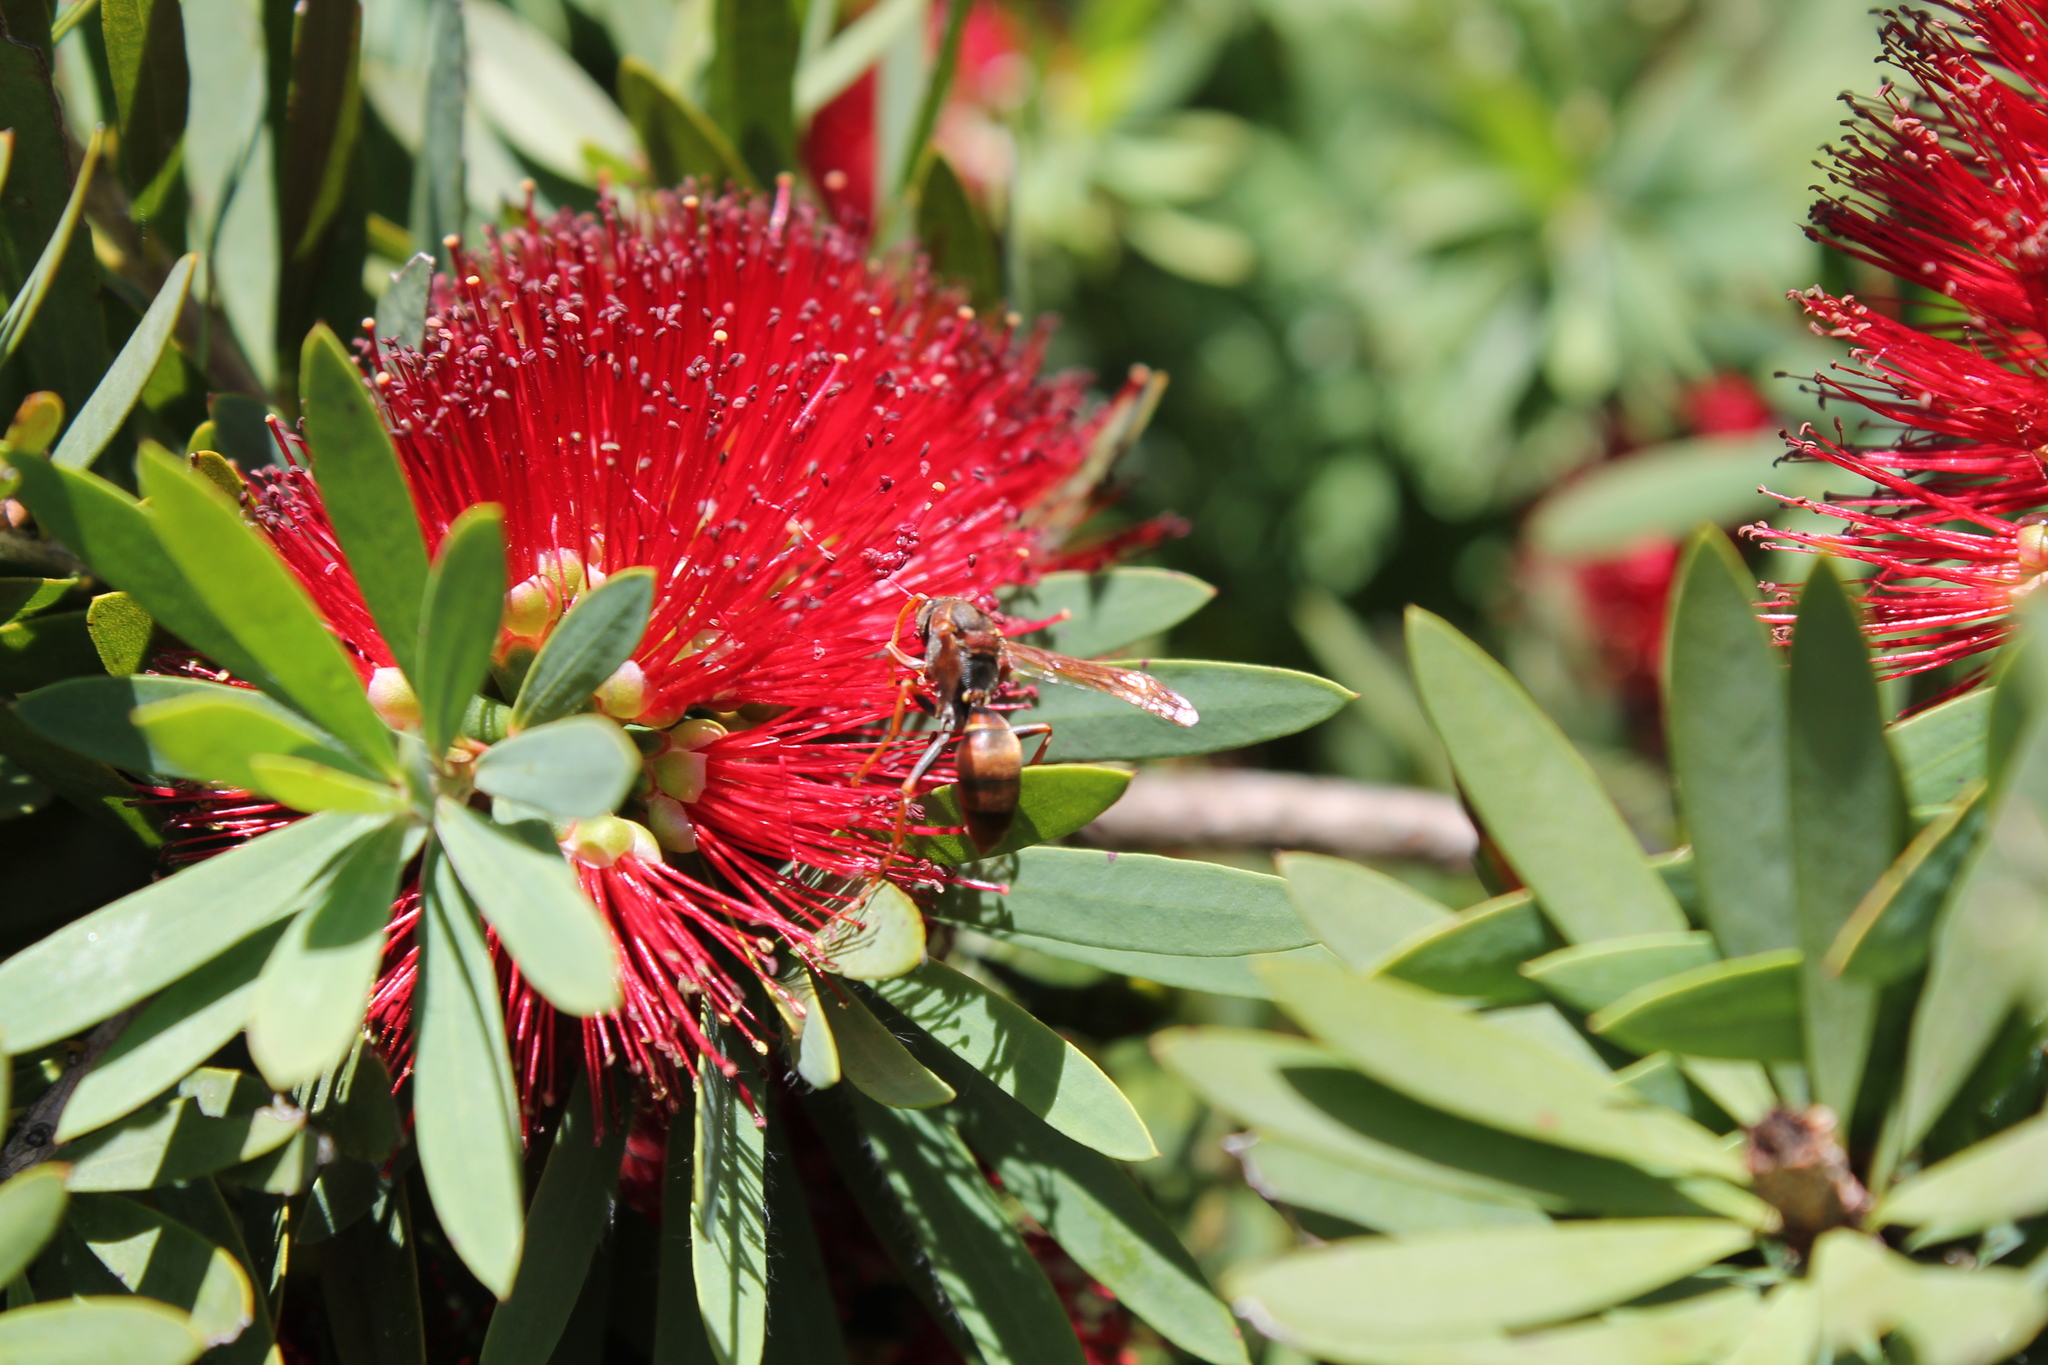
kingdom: Animalia
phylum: Arthropoda
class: Insecta
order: Hymenoptera
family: Eumenidae
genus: Polistes
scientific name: Polistes humilis
